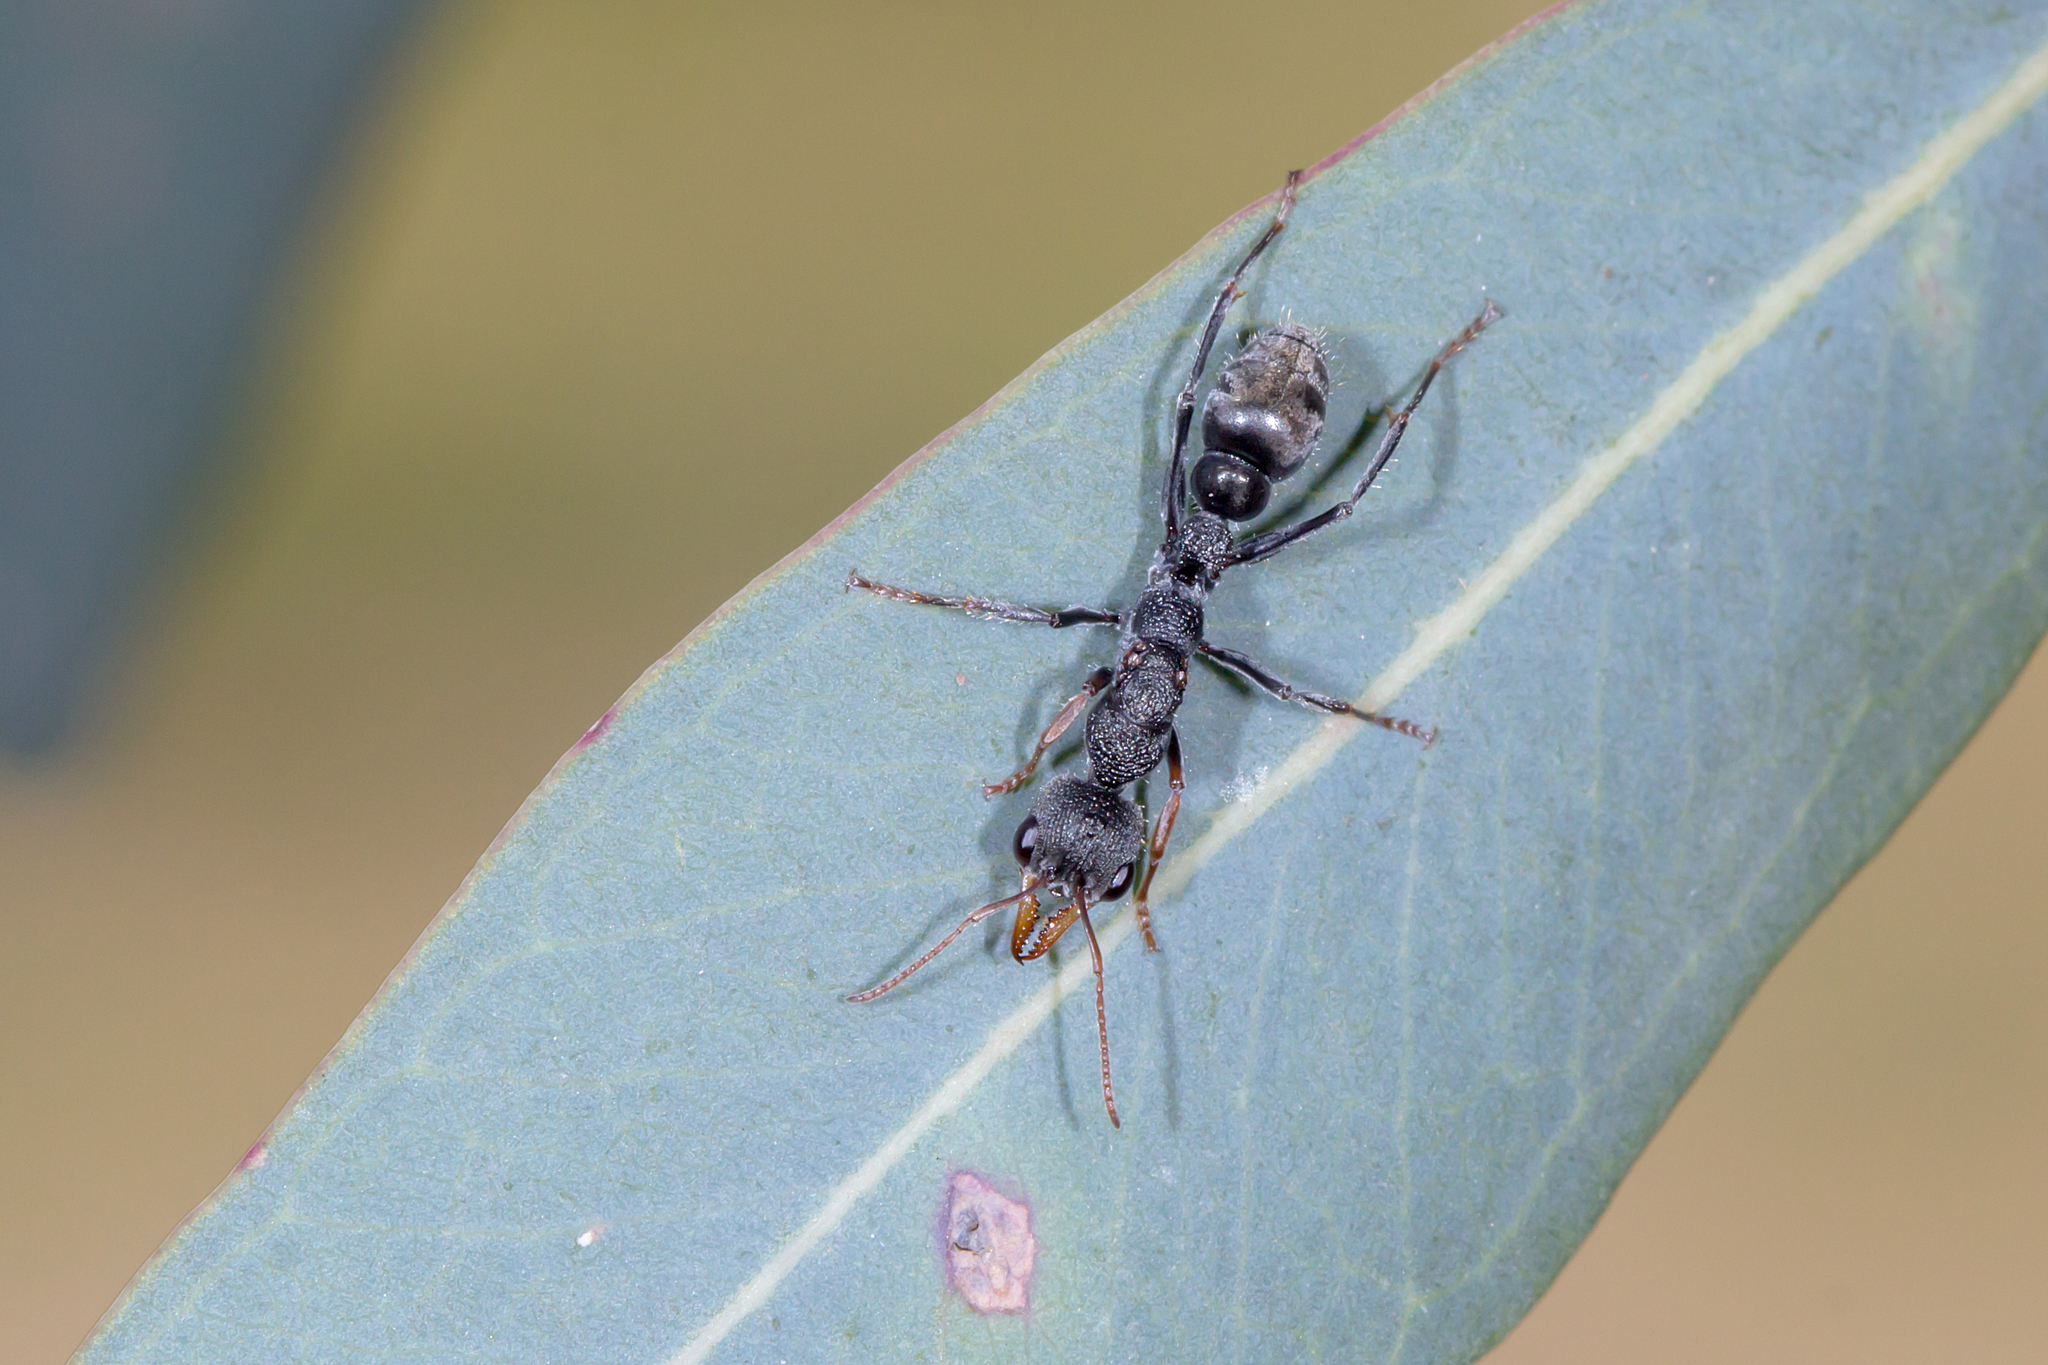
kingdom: Animalia
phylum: Arthropoda
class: Insecta
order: Hymenoptera
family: Formicidae
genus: Myrmecia
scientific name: Myrmecia urens
